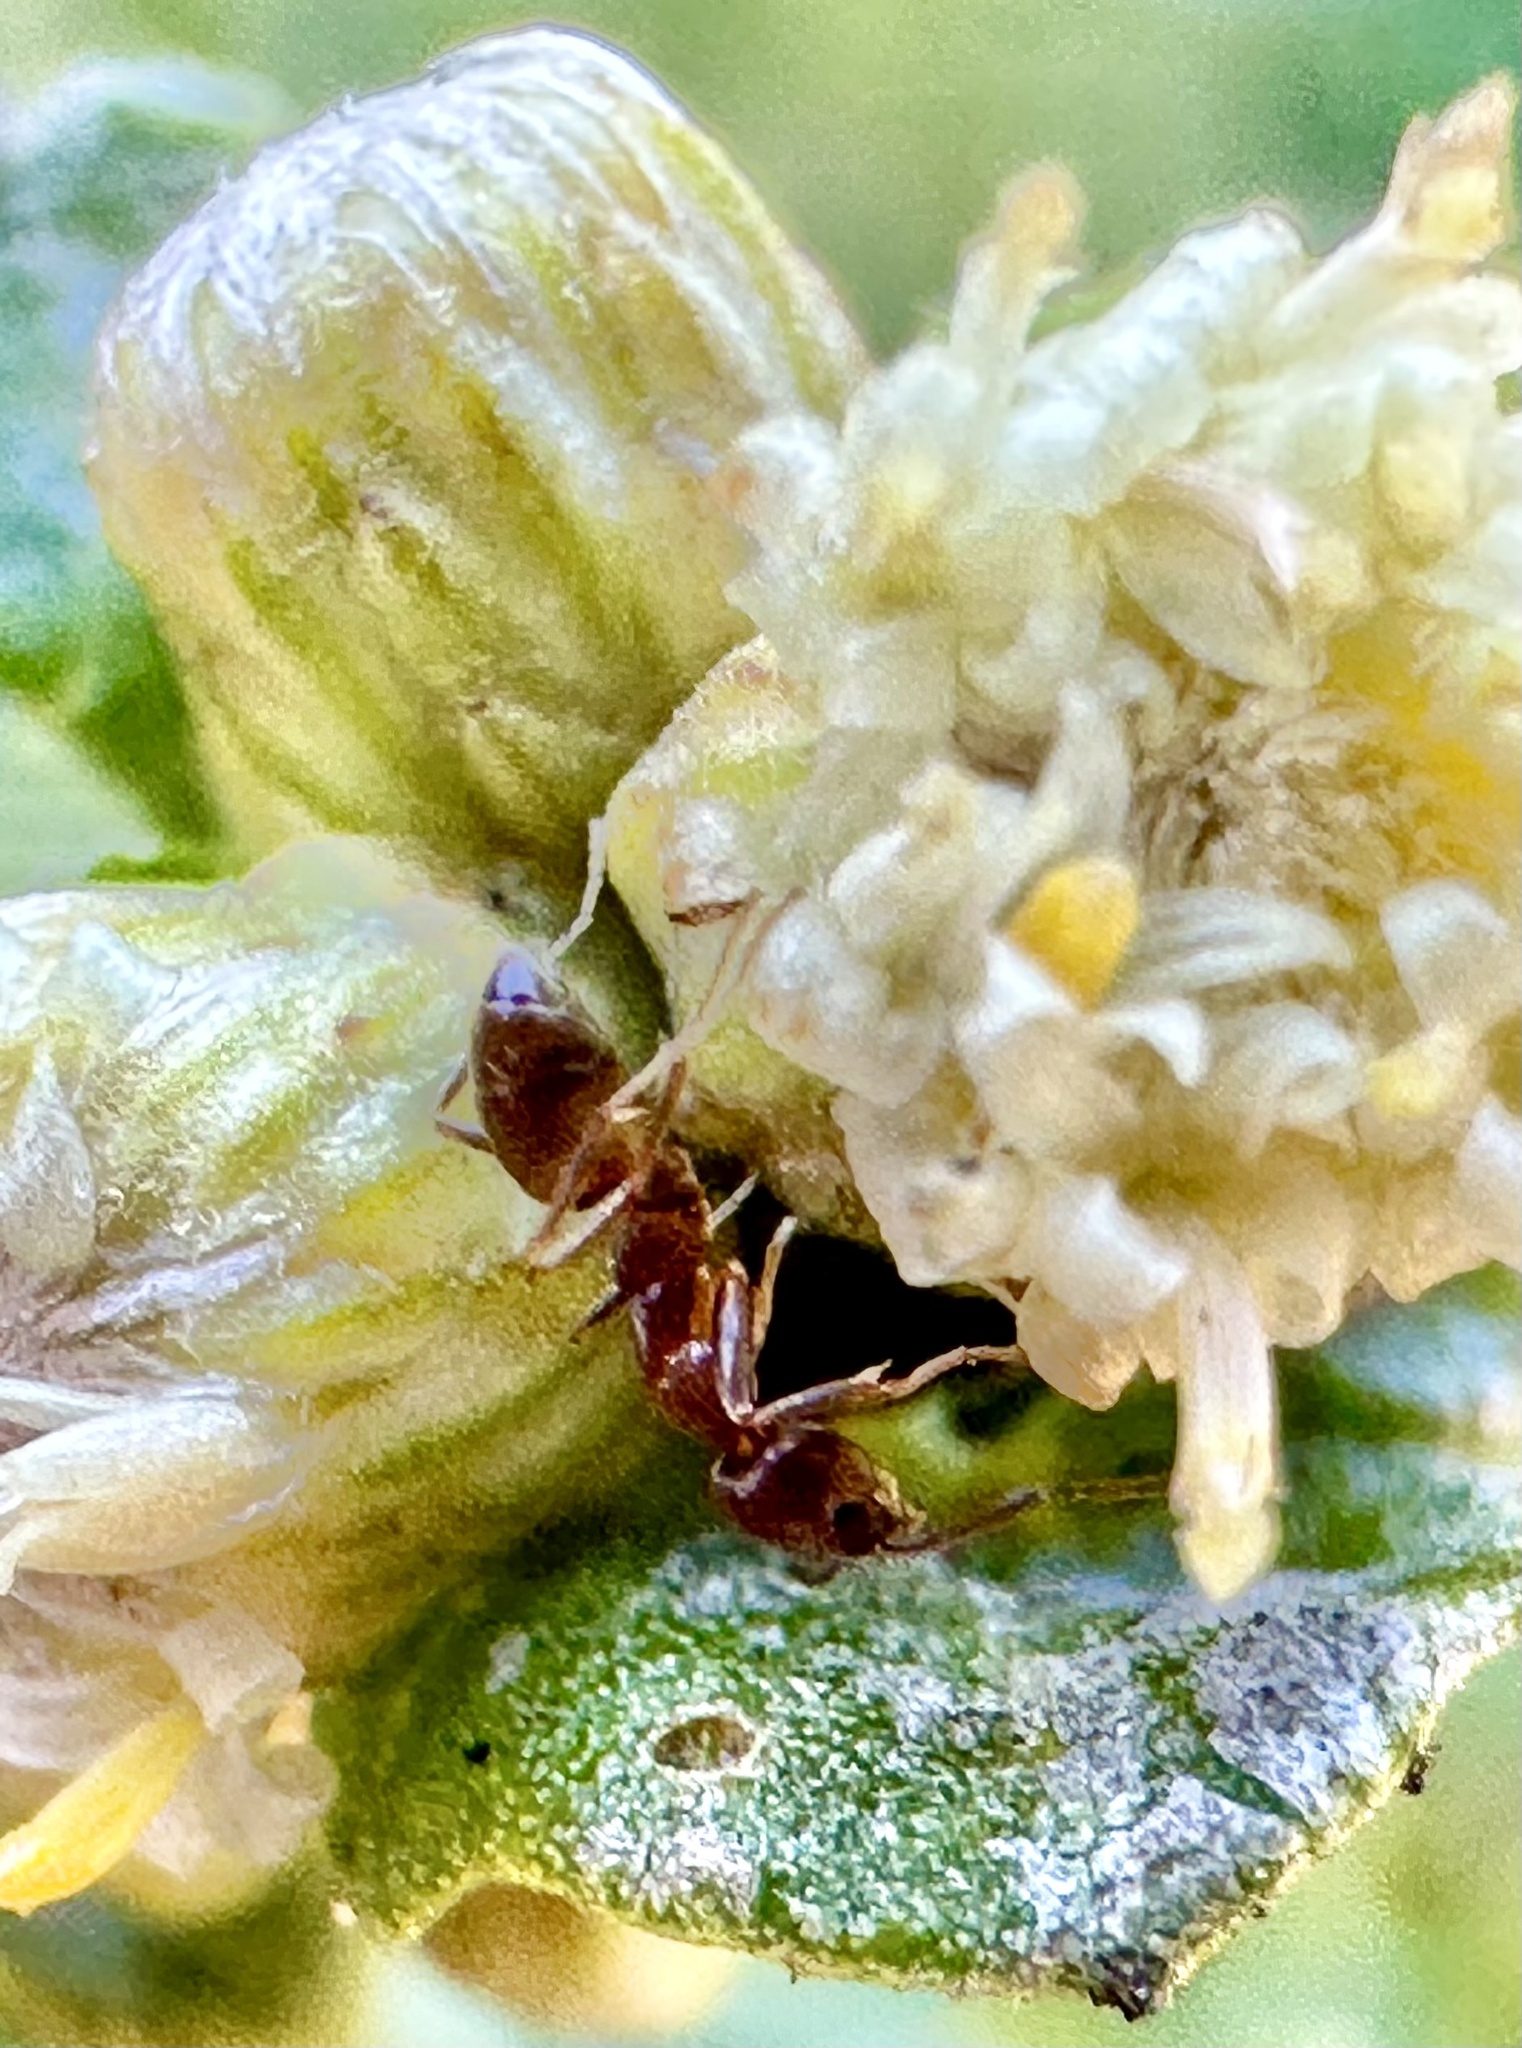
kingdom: Animalia
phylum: Arthropoda
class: Insecta
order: Hymenoptera
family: Formicidae
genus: Linepithema
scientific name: Linepithema humile
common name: Argentine ant
